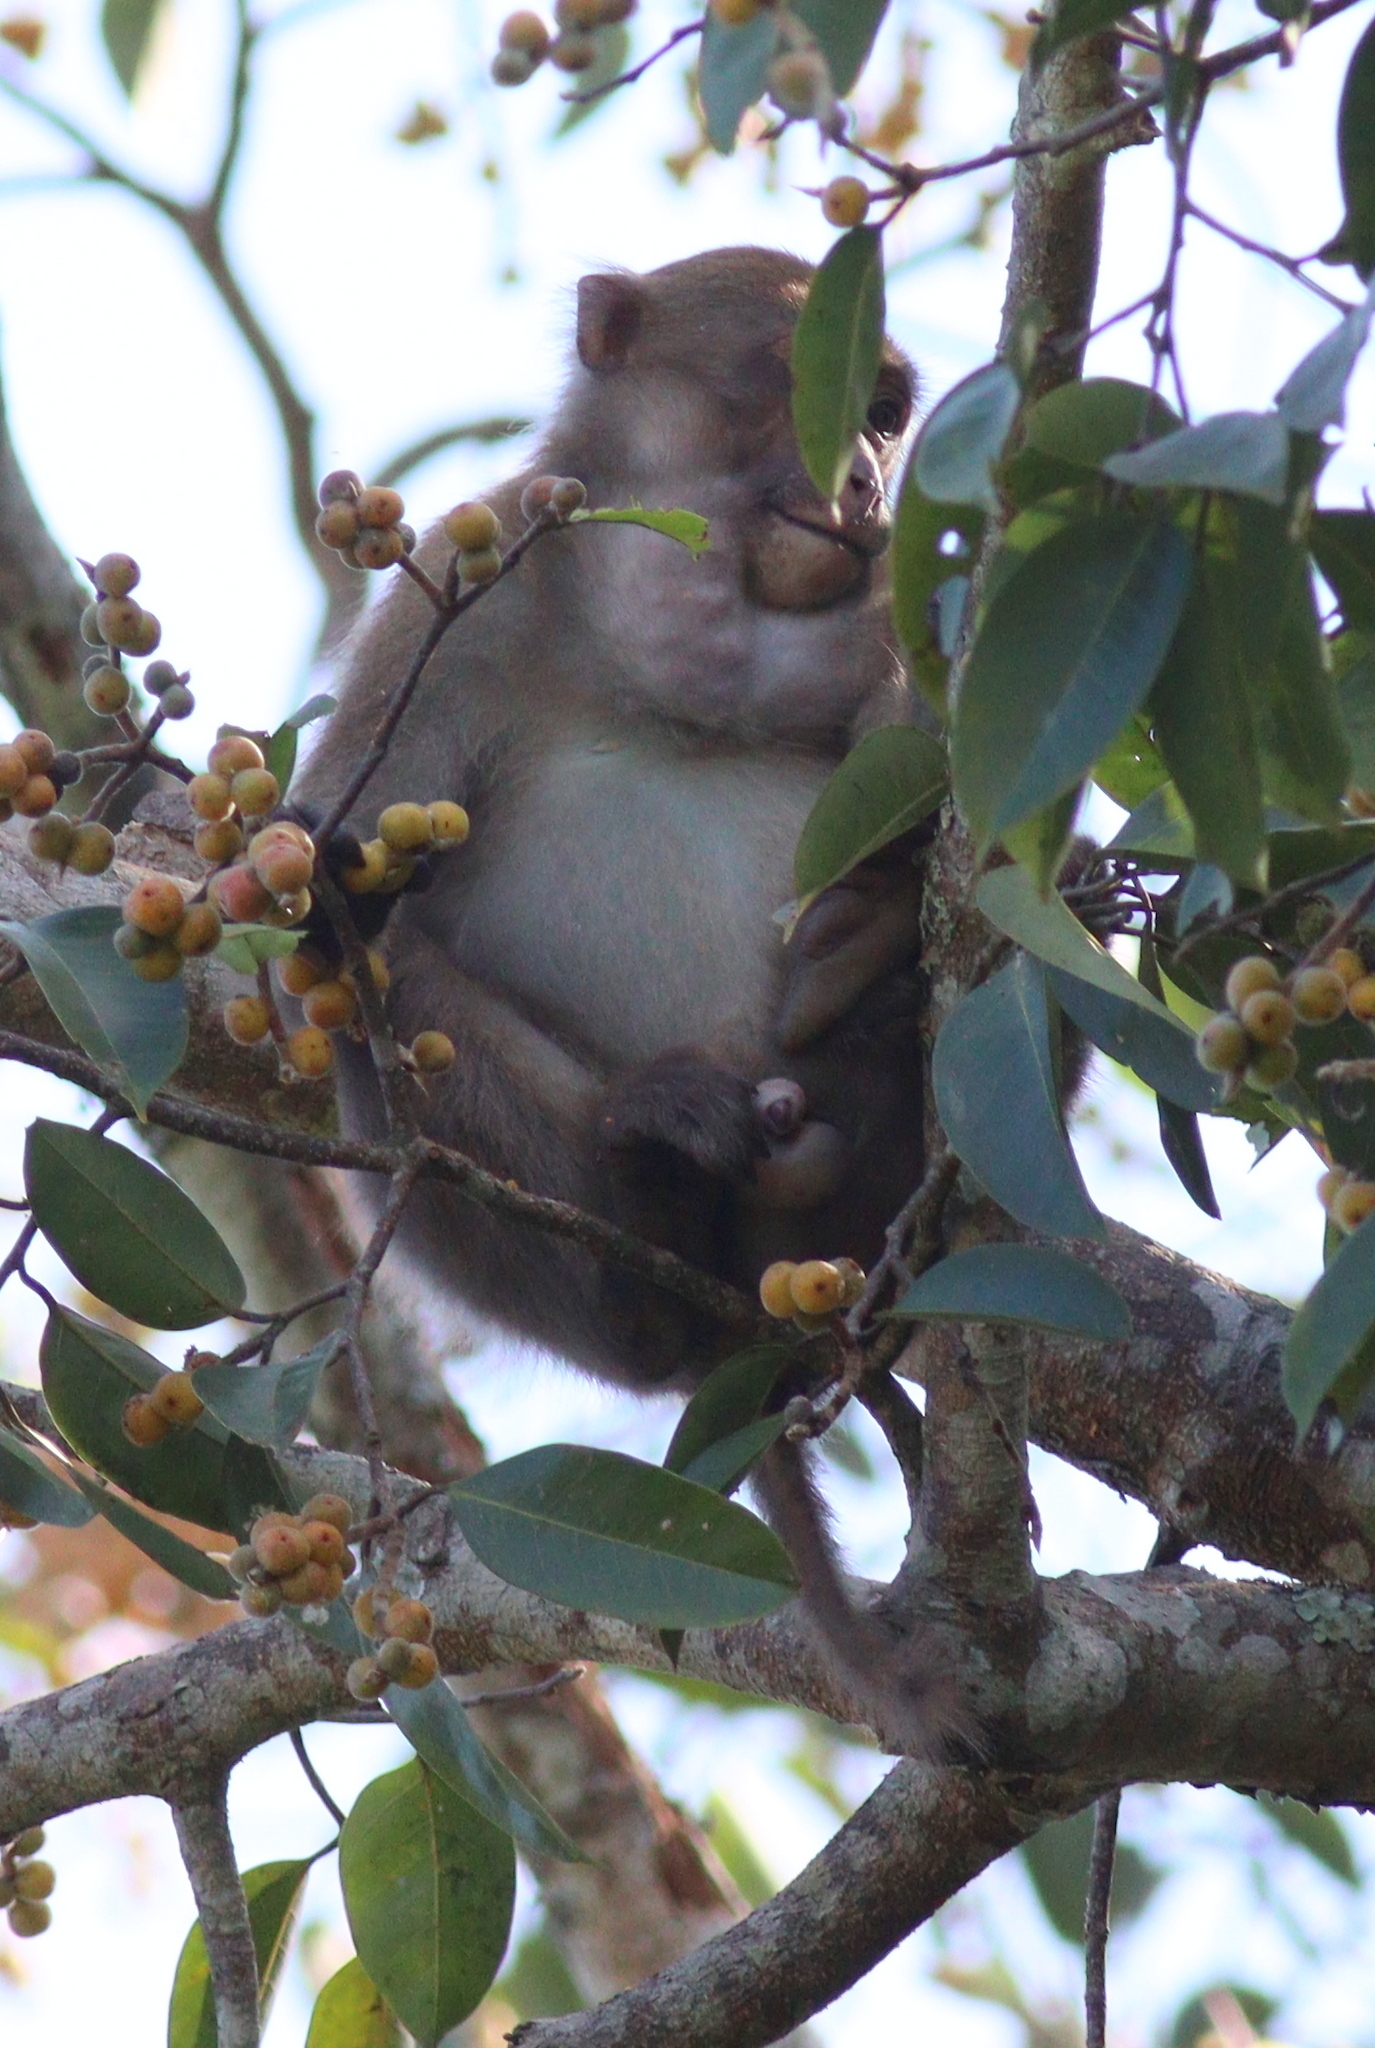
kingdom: Animalia
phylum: Chordata
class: Mammalia
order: Primates
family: Cercopithecidae
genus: Macaca
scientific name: Macaca assamensis
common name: Assam macaque
